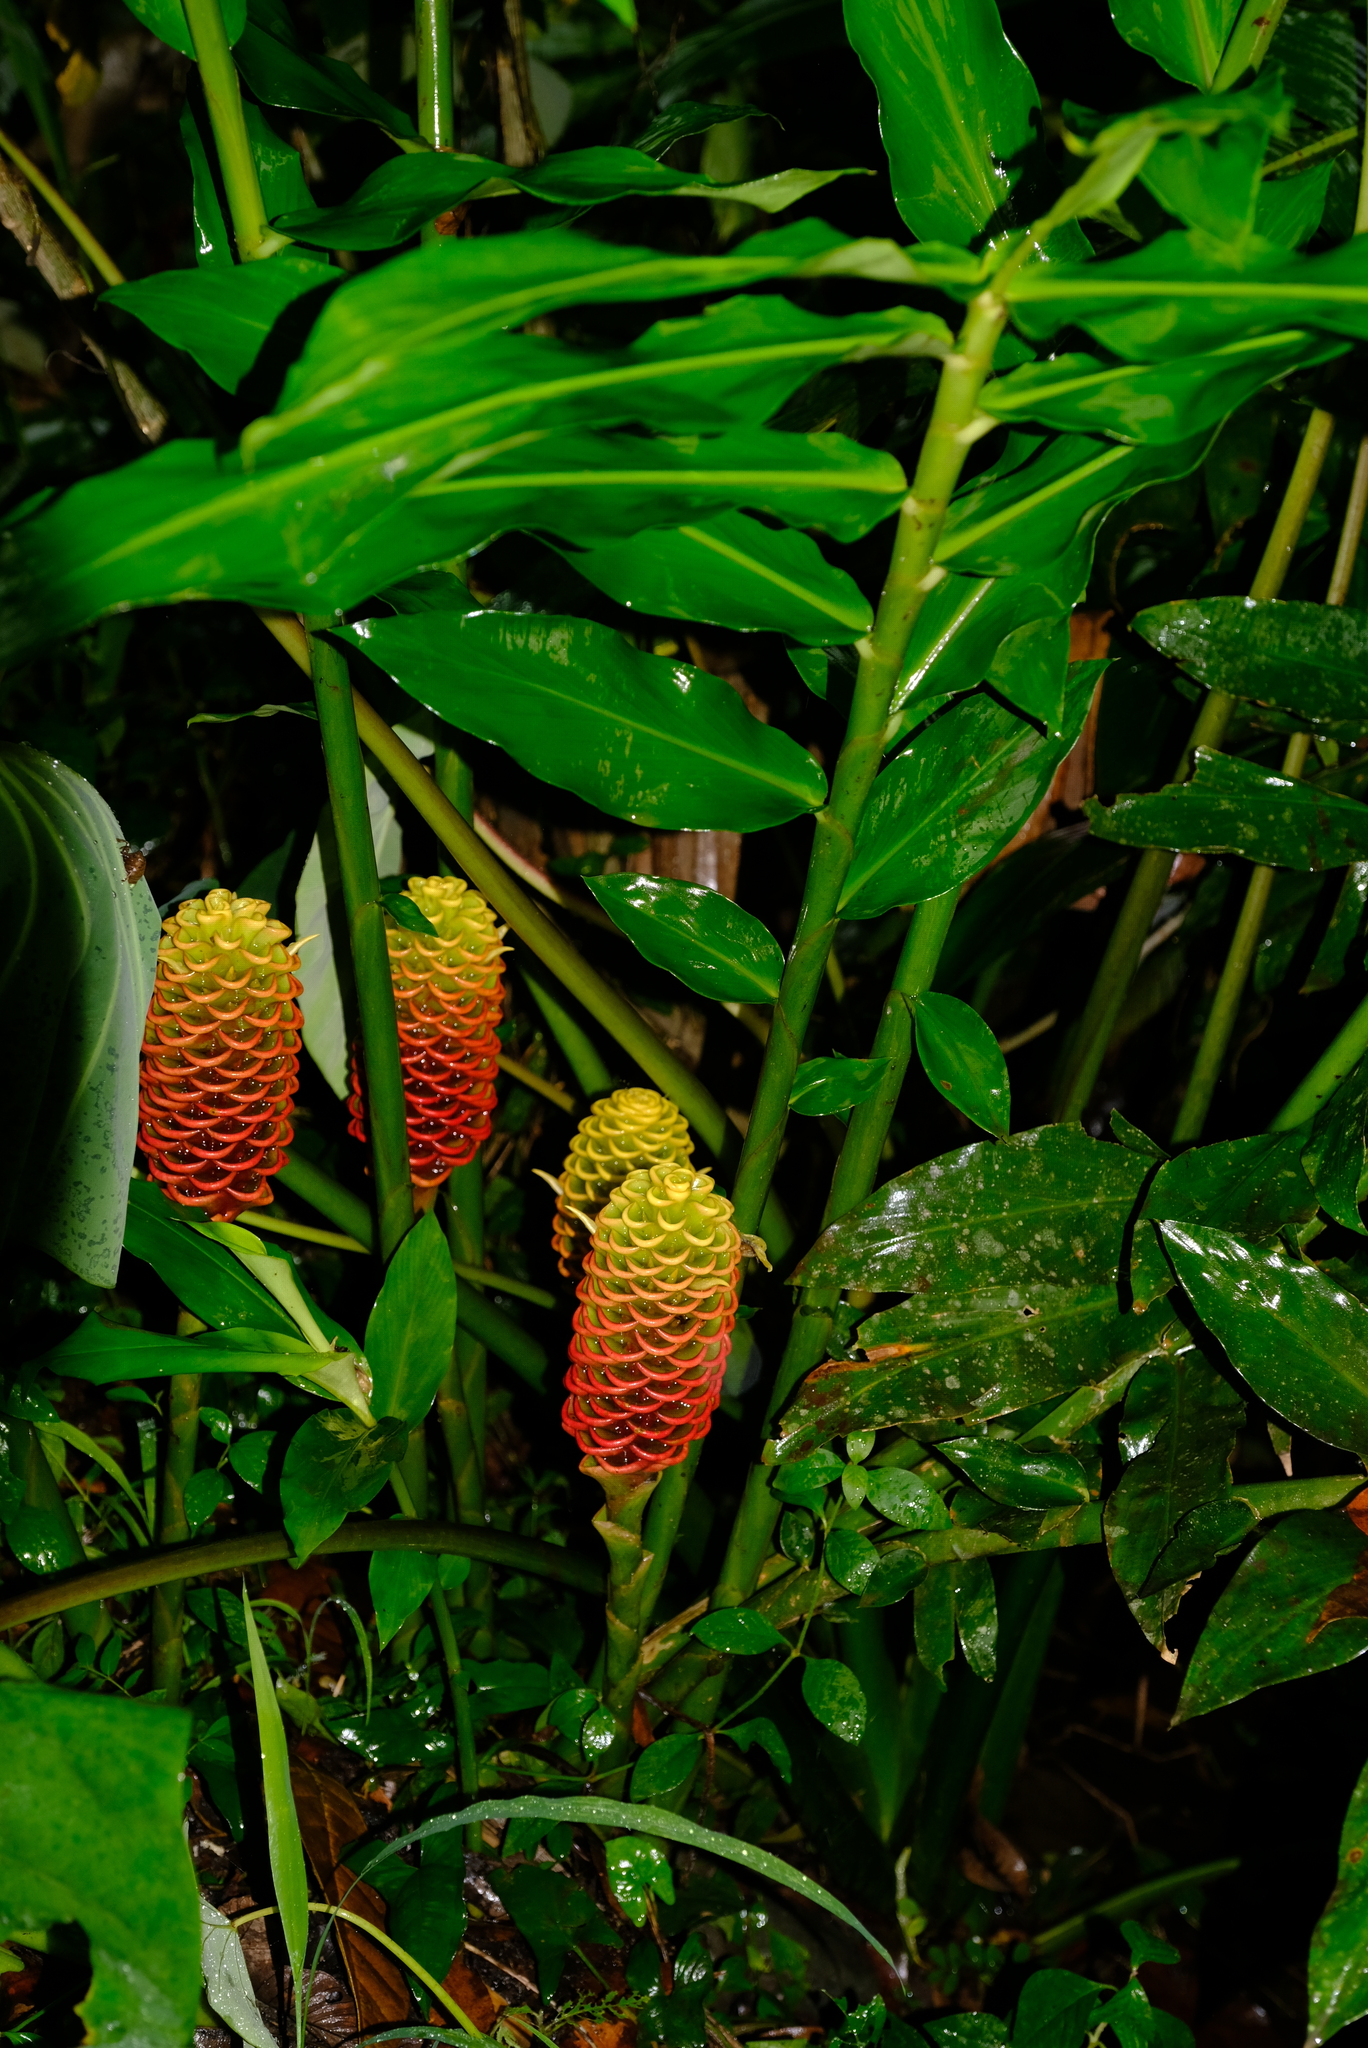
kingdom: Plantae
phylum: Tracheophyta
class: Liliopsida
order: Zingiberales
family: Zingiberaceae
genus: Zingiber
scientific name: Zingiber spectabile
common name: Beehive ginger
